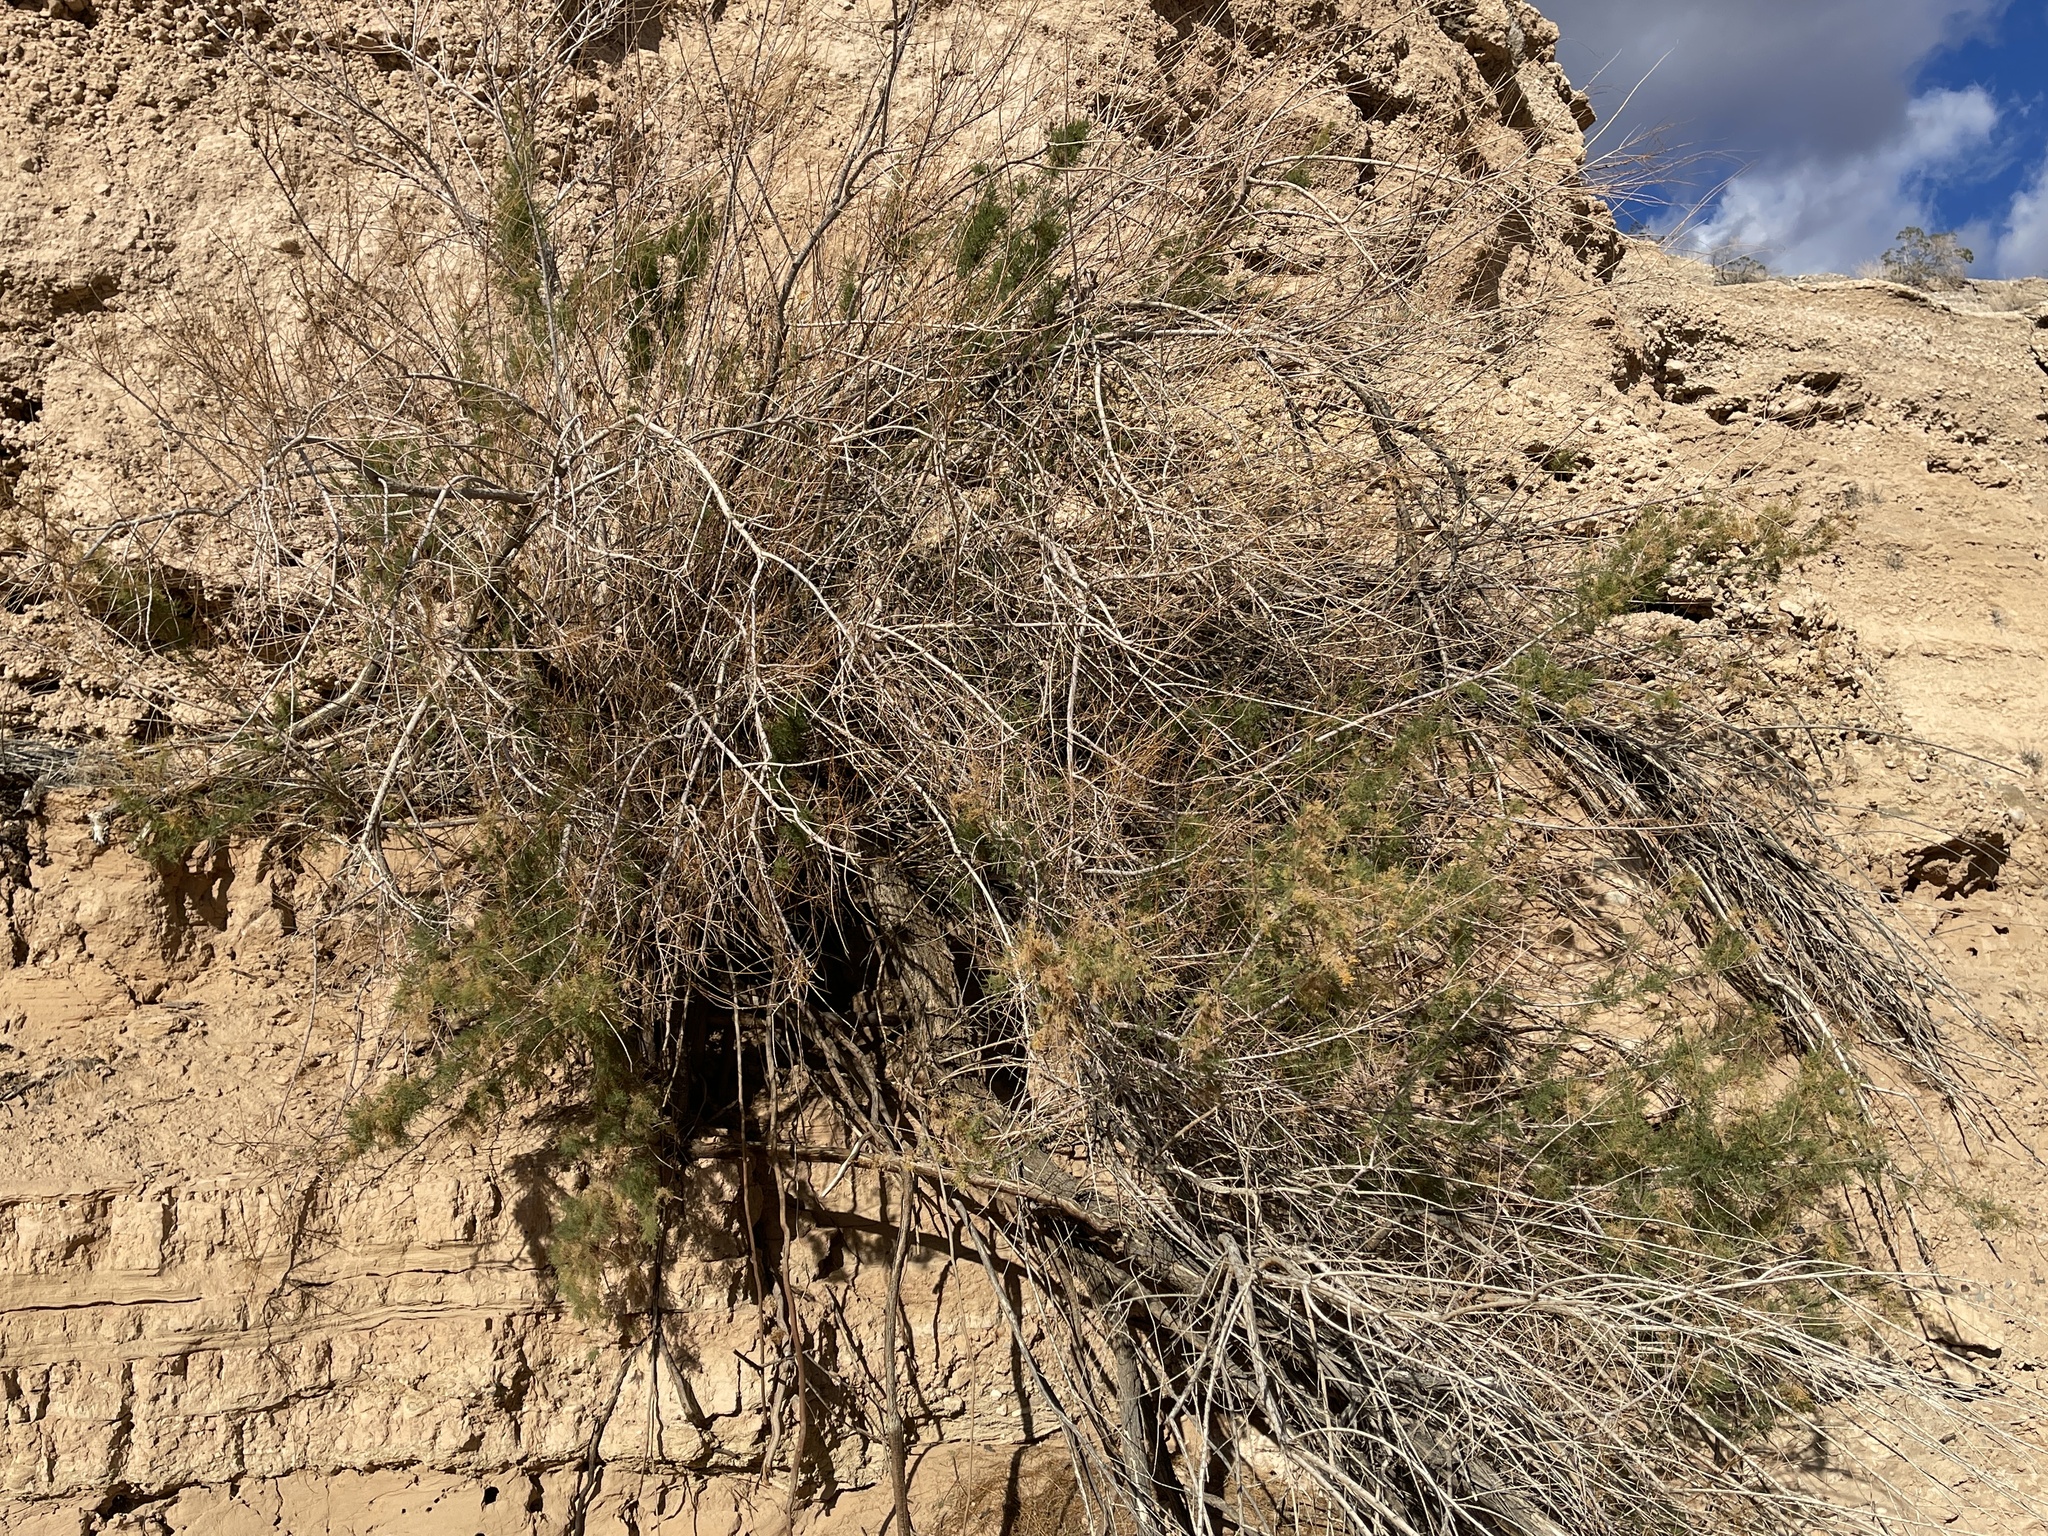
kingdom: Plantae
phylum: Tracheophyta
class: Magnoliopsida
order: Caryophyllales
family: Tamaricaceae
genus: Tamarix
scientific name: Tamarix
